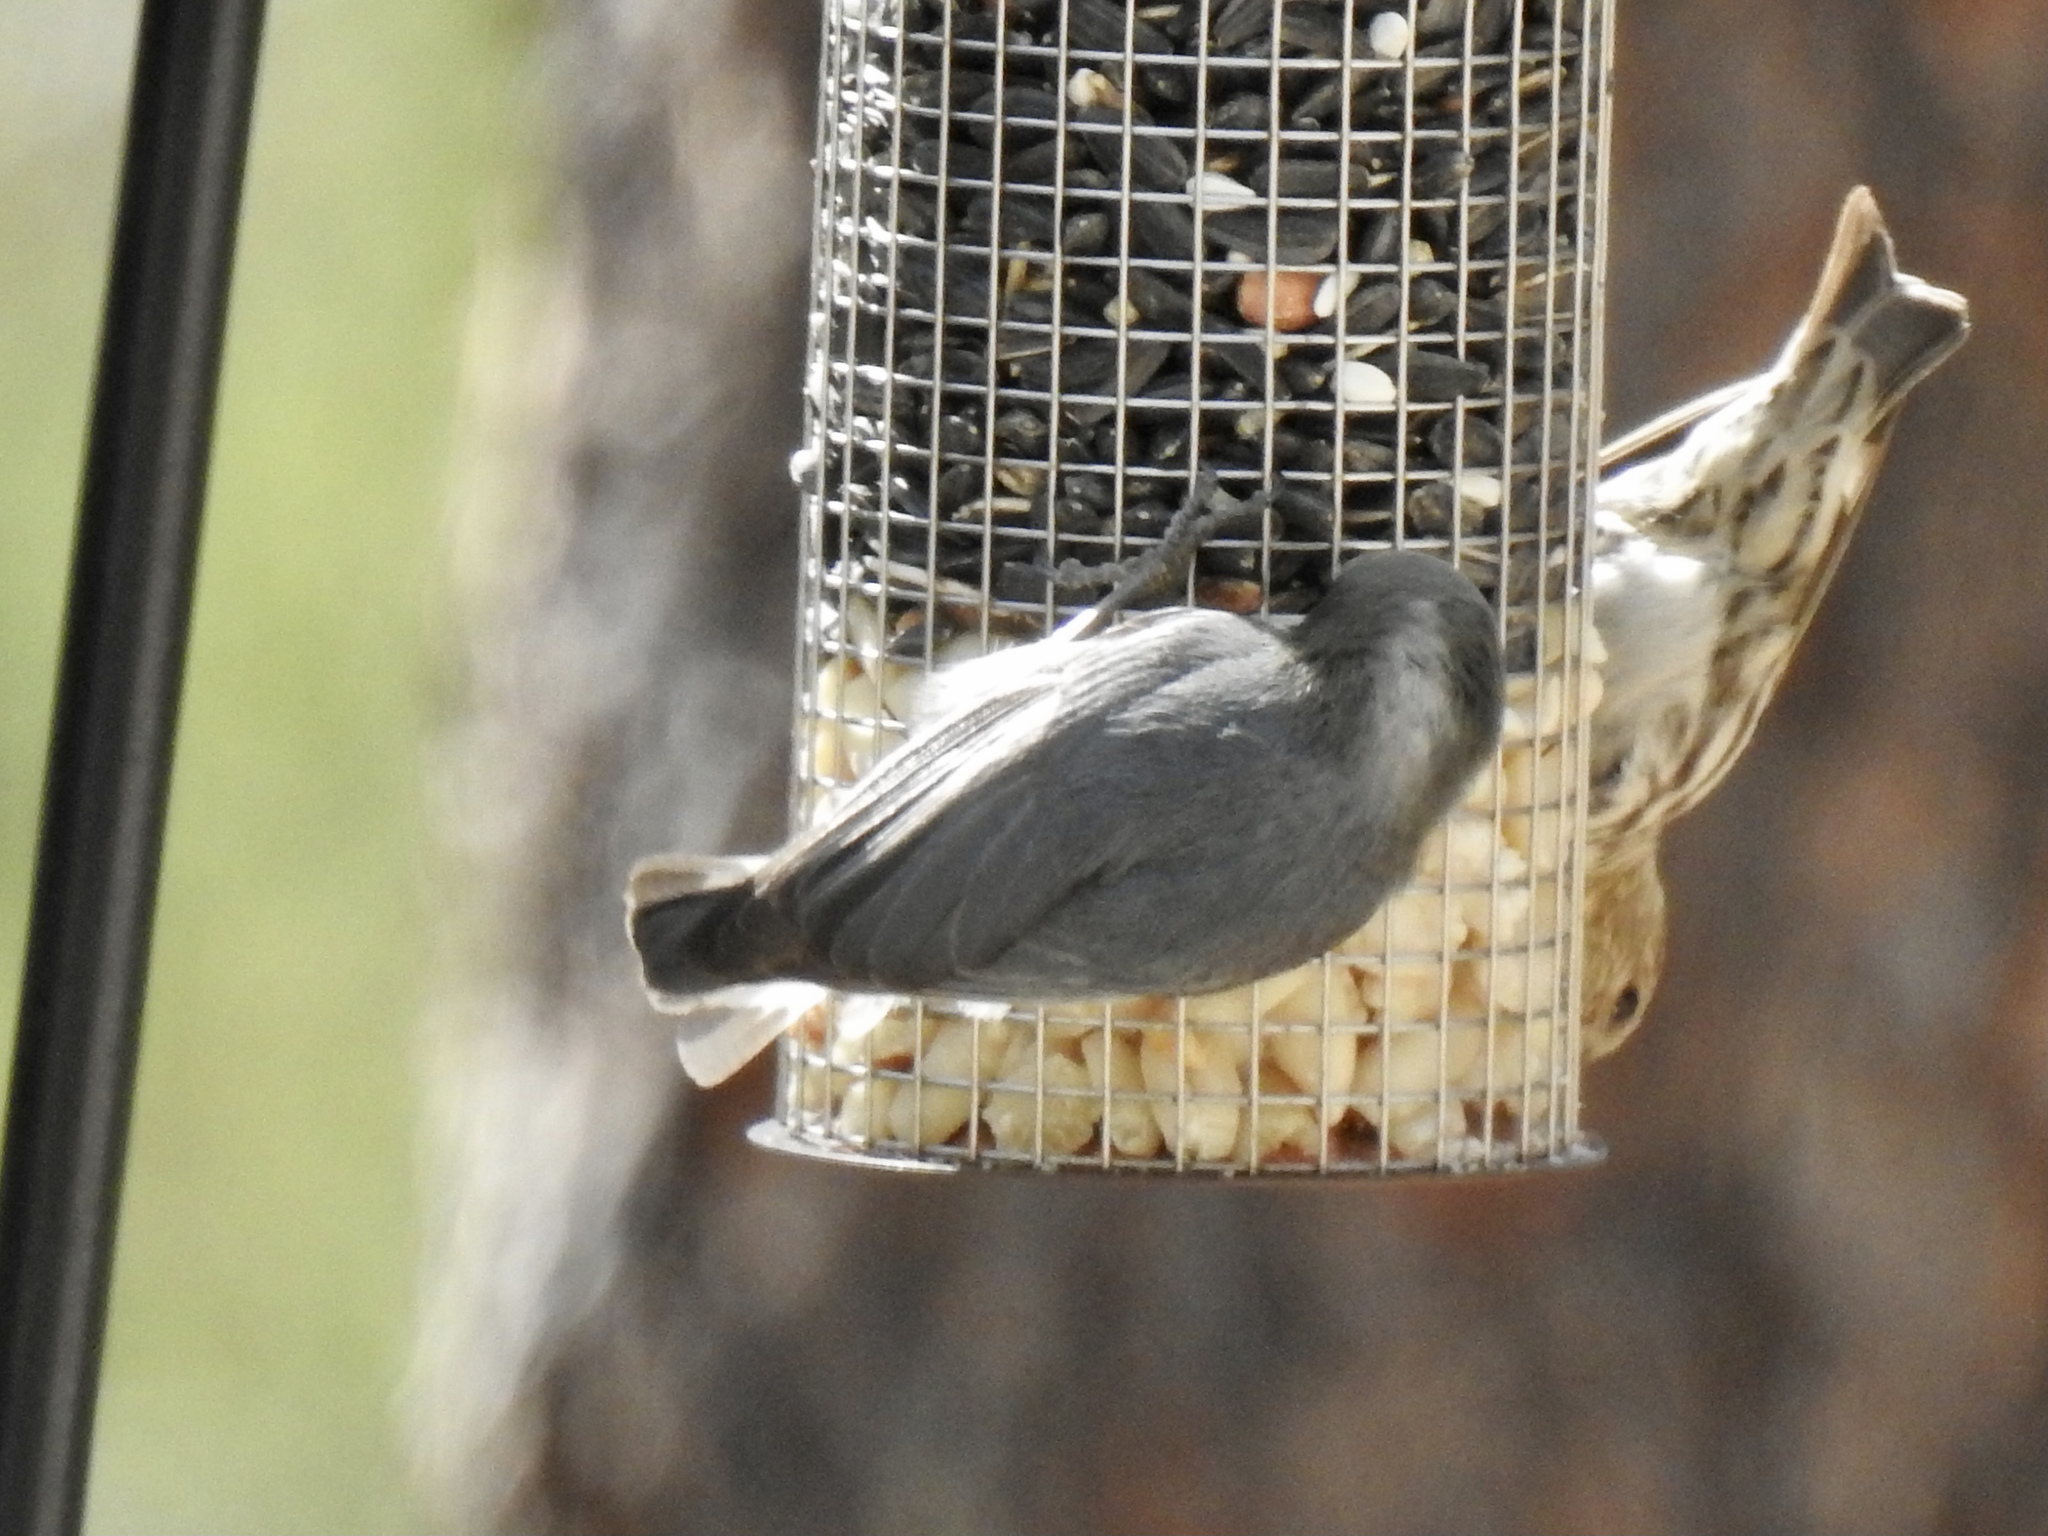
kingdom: Animalia
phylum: Chordata
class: Aves
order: Passeriformes
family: Sittidae
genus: Sitta
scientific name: Sitta pygmaea
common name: Pygmy nuthatch
